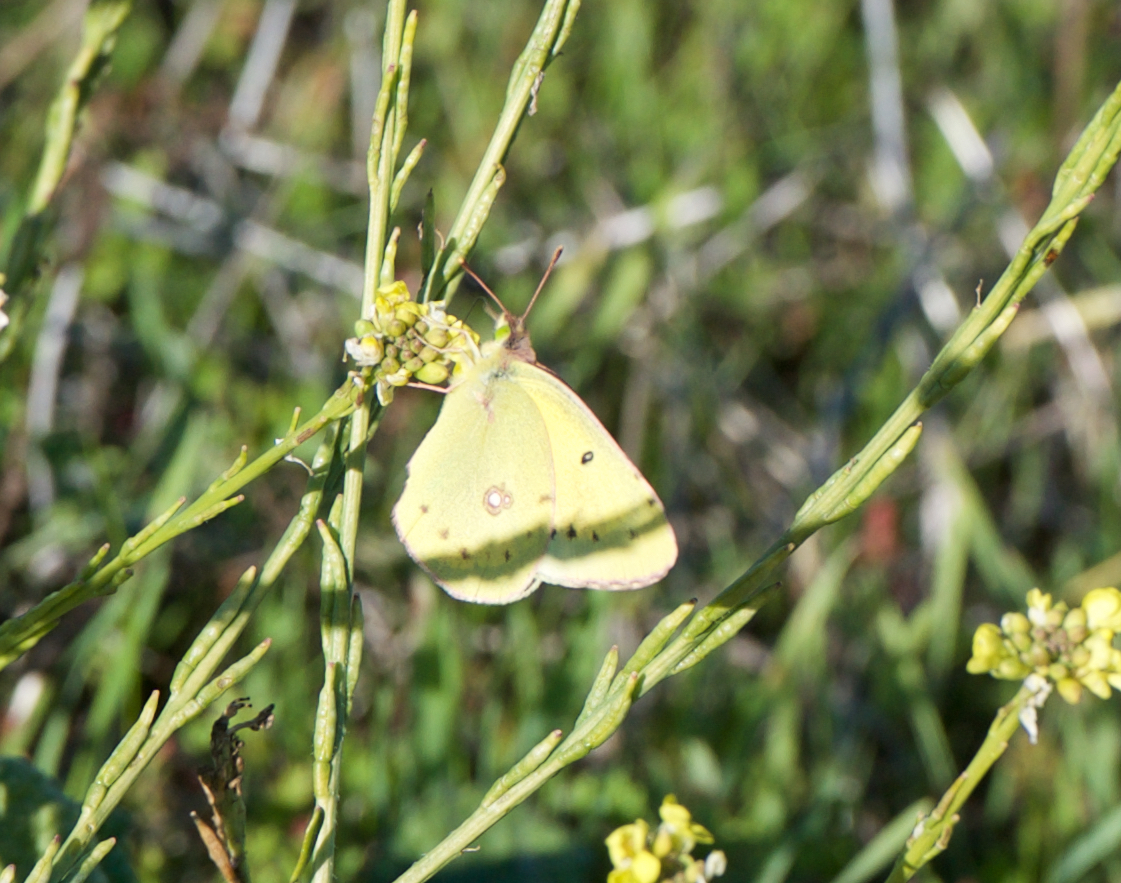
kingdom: Animalia
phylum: Arthropoda
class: Insecta
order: Lepidoptera
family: Pieridae
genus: Colias
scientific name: Colias eurytheme
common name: Alfalfa butterfly
